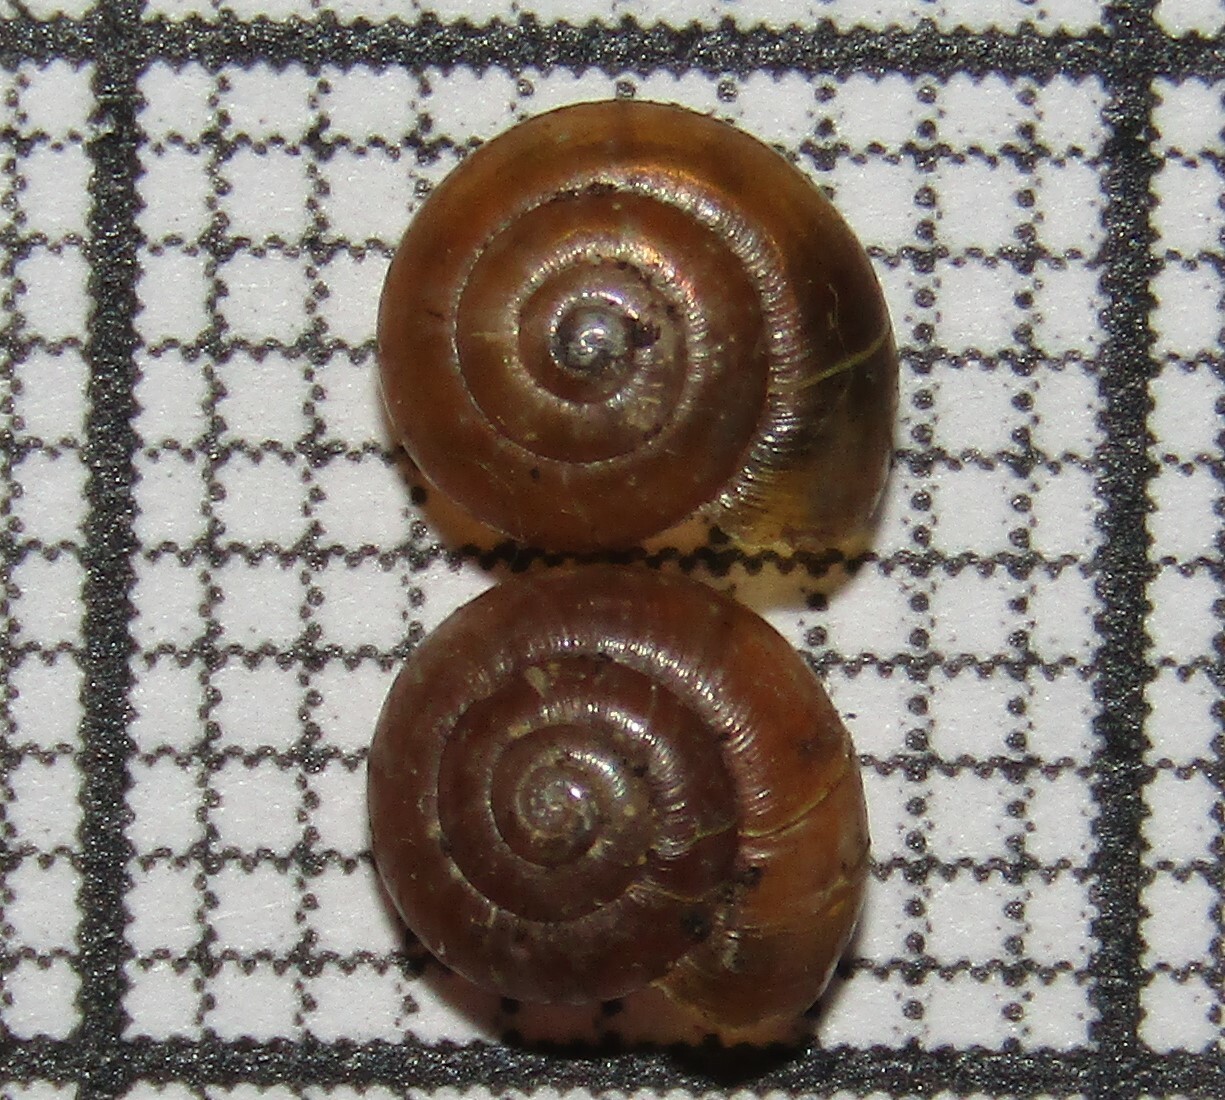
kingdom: Animalia
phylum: Mollusca
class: Gastropoda
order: Stylommatophora
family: Gastrodontidae
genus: Zonitoides
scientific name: Zonitoides nitidus
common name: Shiny glass snail
